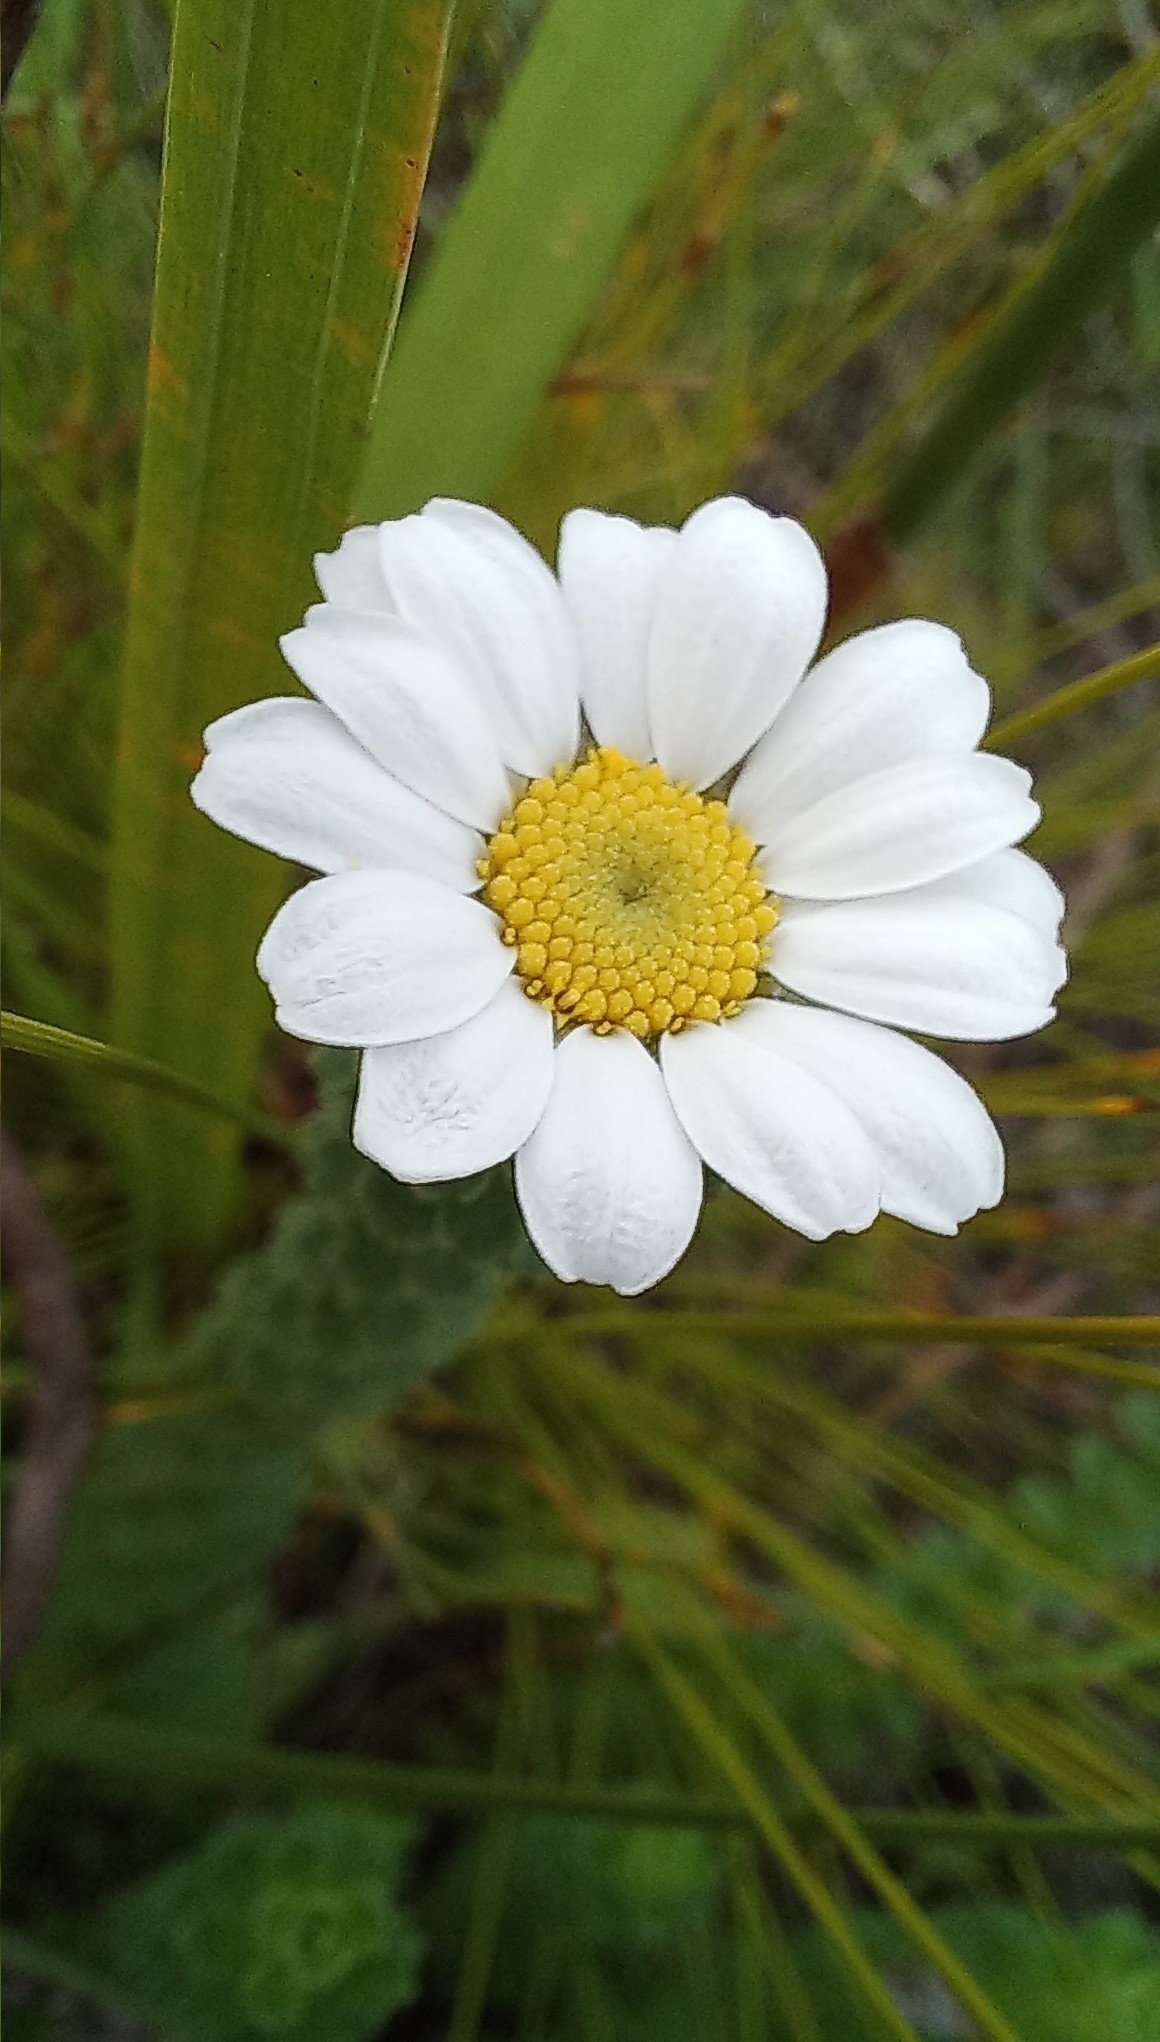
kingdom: Plantae
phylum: Tracheophyta
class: Magnoliopsida
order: Asterales
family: Asteraceae
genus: Osmitopsis
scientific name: Osmitopsis parvifolia
